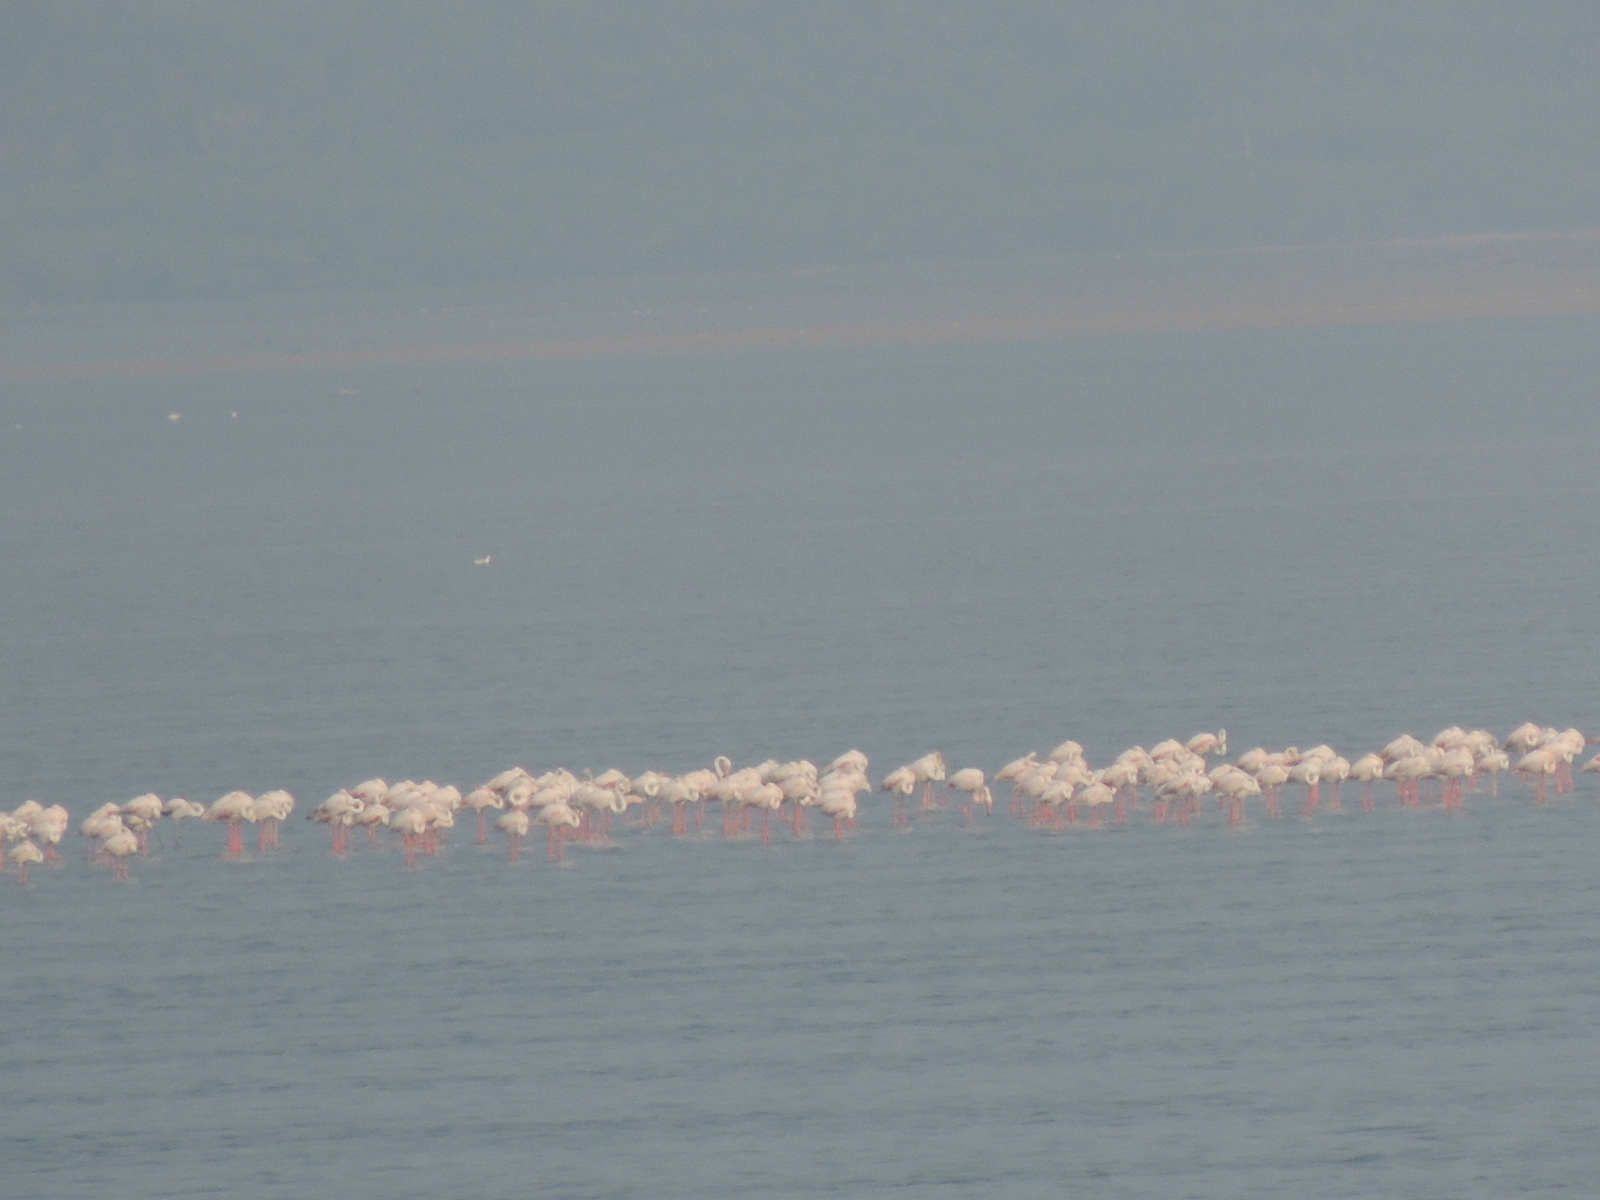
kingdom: Animalia
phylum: Chordata
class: Aves
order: Phoenicopteriformes
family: Phoenicopteridae
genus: Phoenicopterus
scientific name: Phoenicopterus roseus
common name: Greater flamingo
